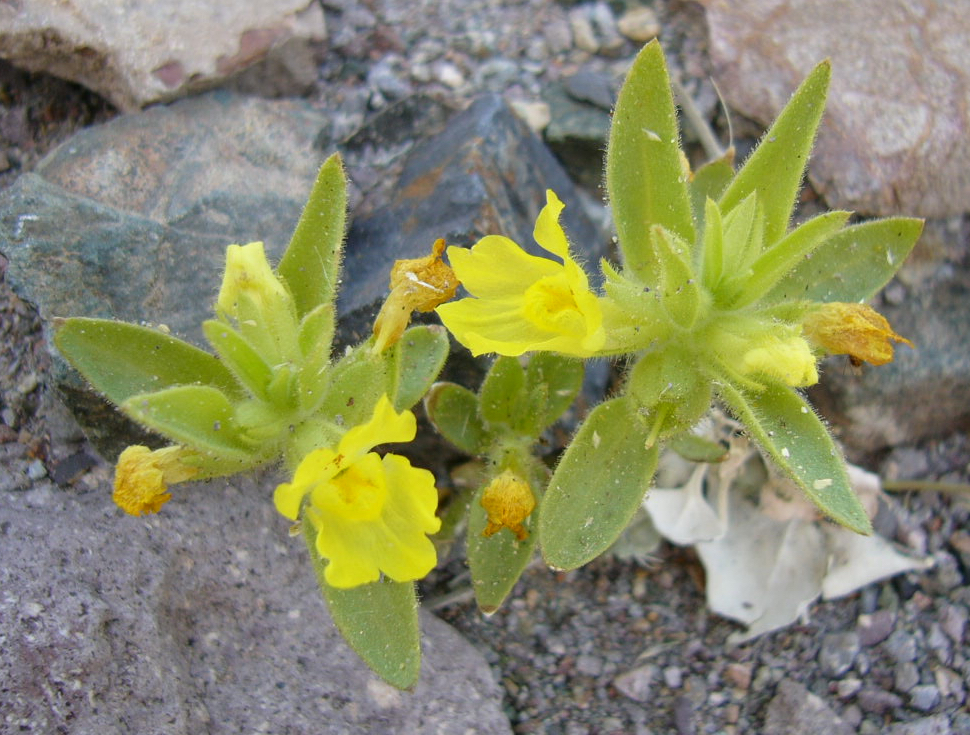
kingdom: Plantae
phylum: Tracheophyta
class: Magnoliopsida
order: Lamiales
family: Plantaginaceae
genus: Mohavea
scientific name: Mohavea breviflora
